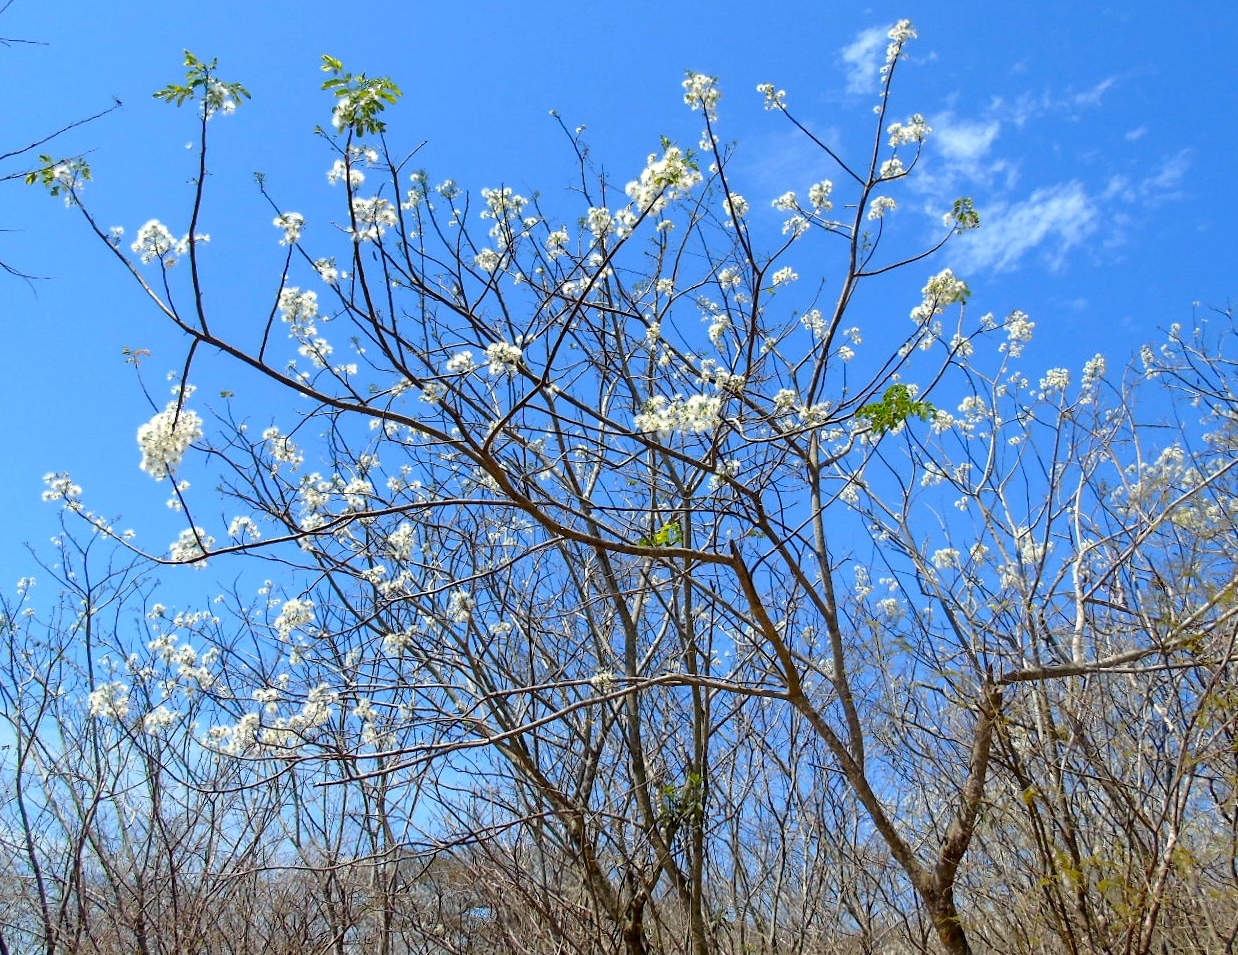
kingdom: Plantae
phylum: Tracheophyta
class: Magnoliopsida
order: Fabales
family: Fabaceae
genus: Albizia
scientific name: Albizia occidentalis
